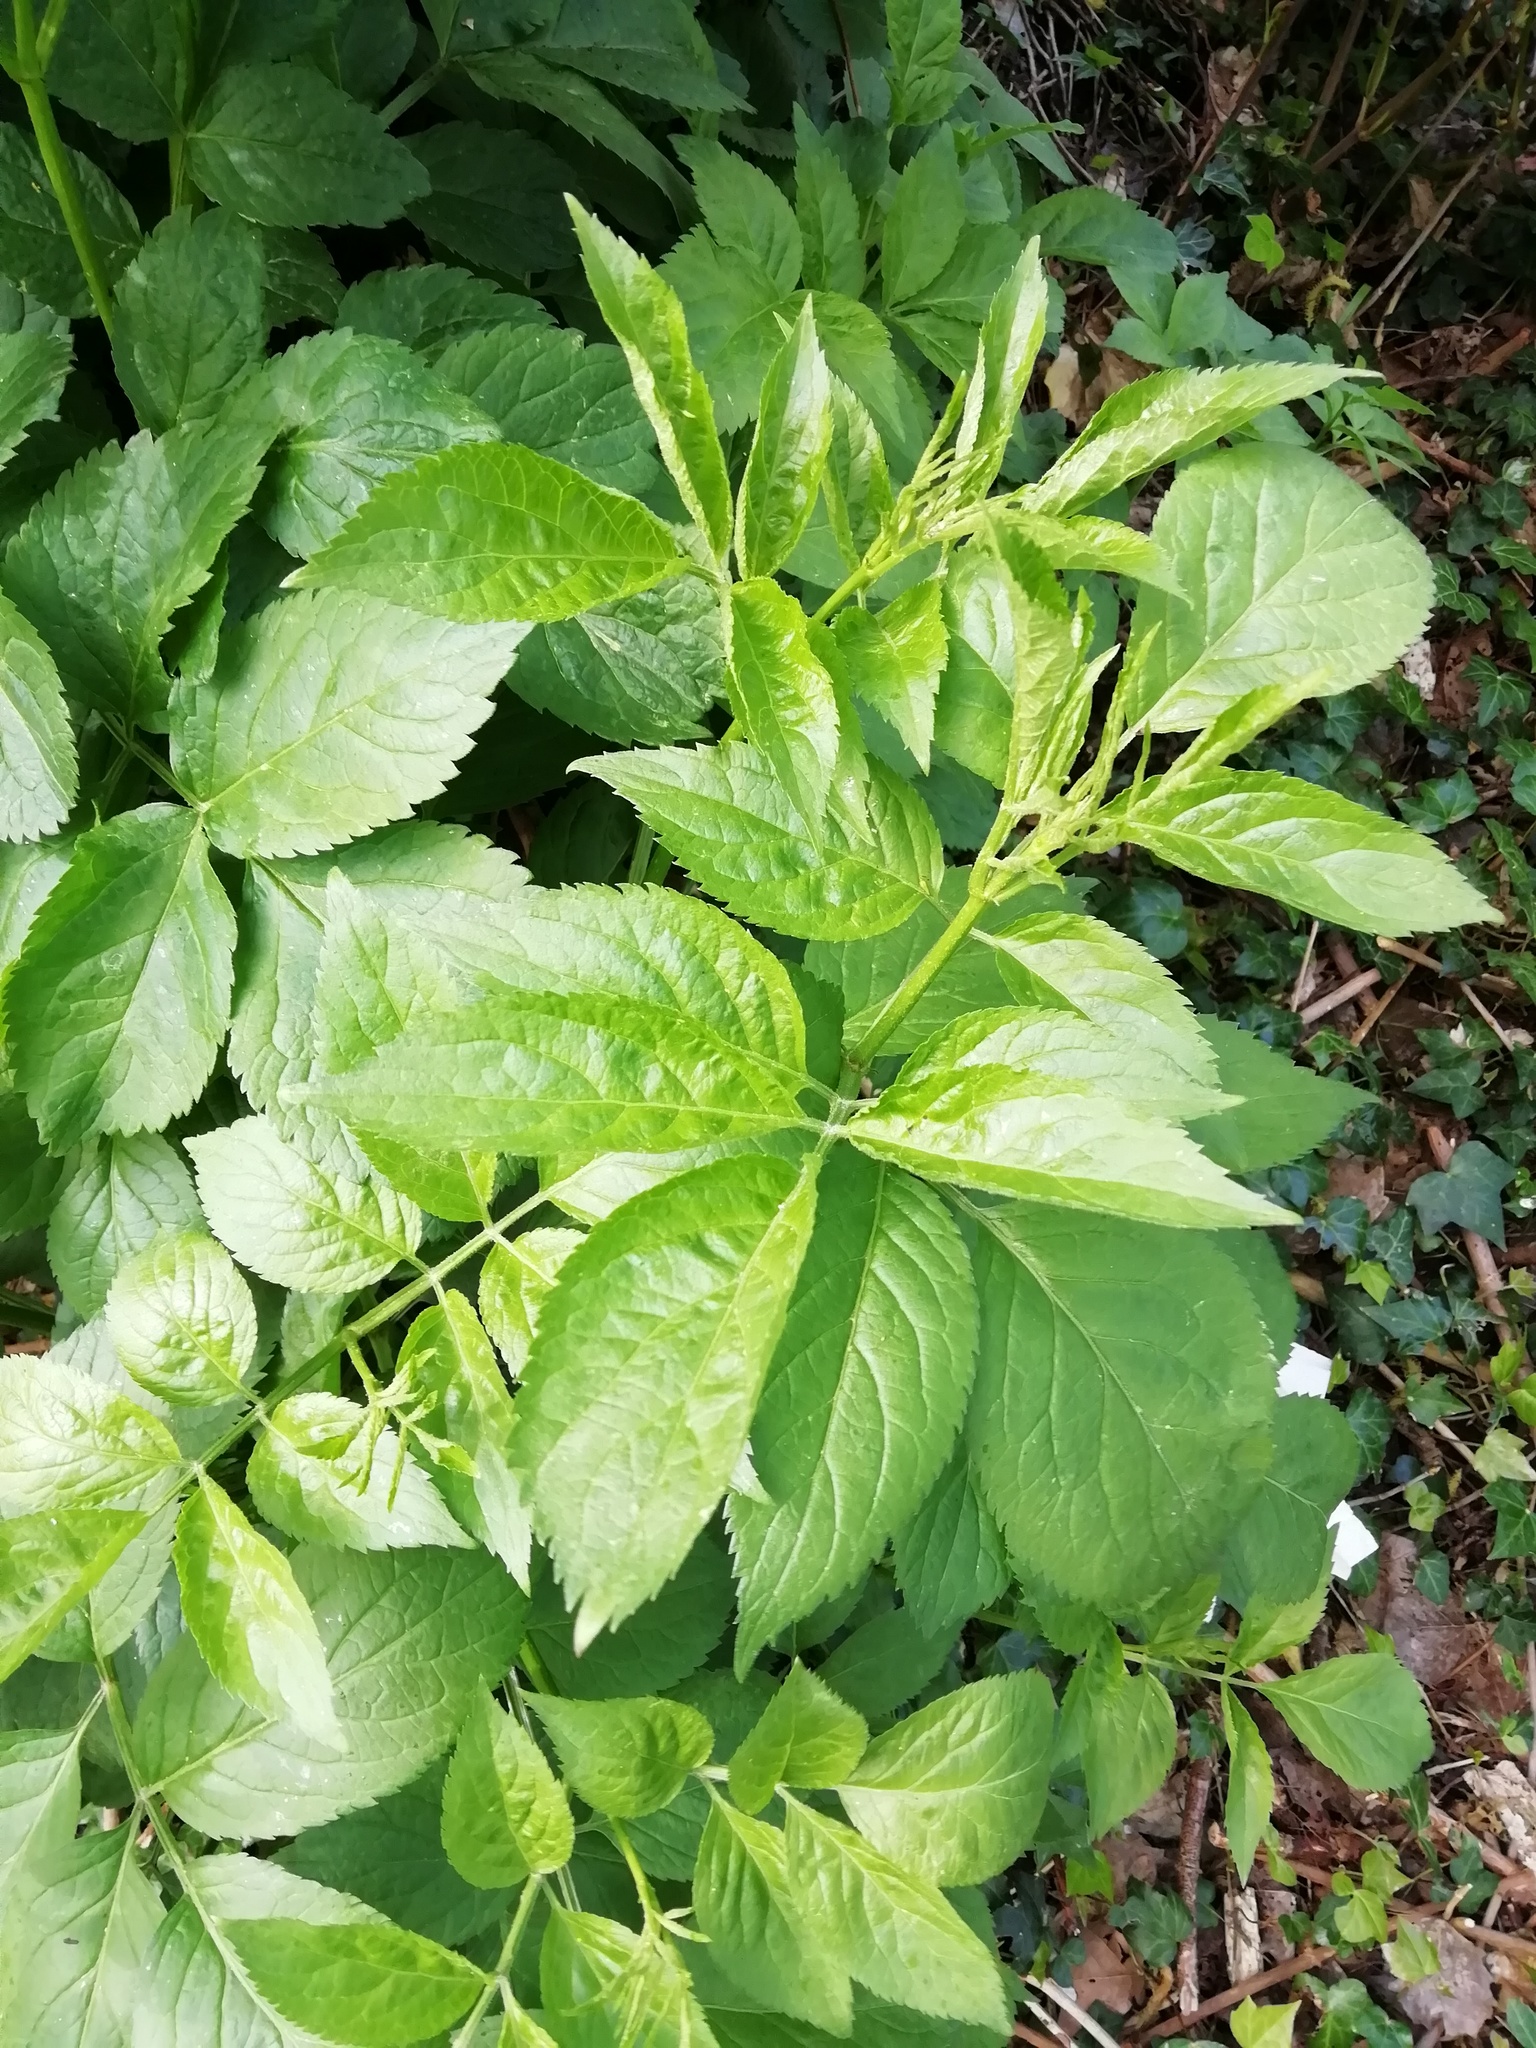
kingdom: Plantae
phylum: Tracheophyta
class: Magnoliopsida
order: Dipsacales
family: Viburnaceae
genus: Sambucus
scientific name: Sambucus nigra
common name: Elder
